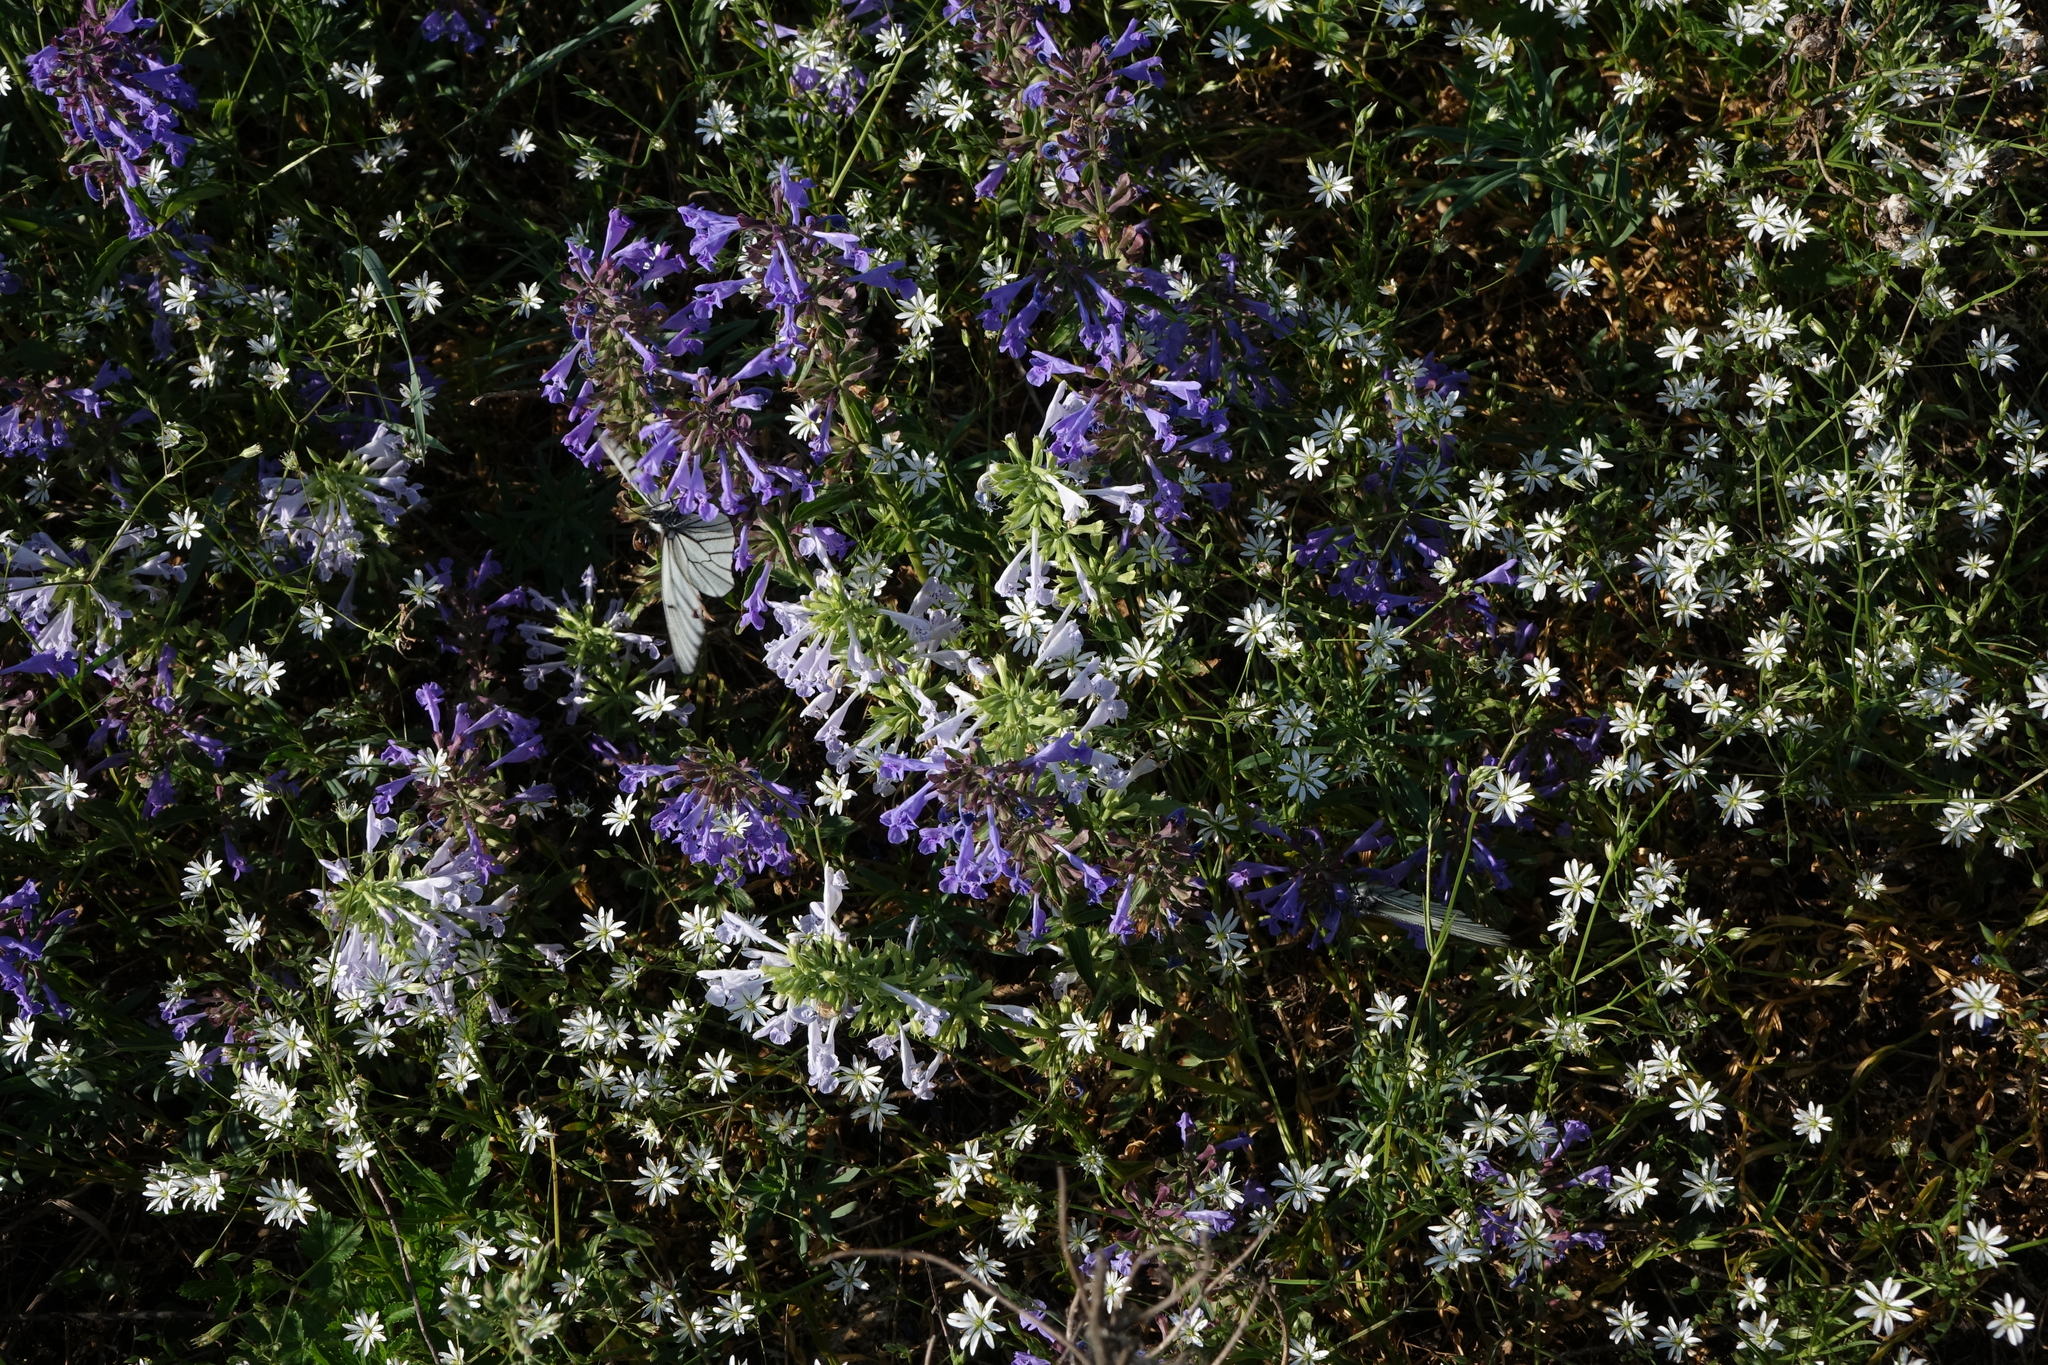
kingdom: Plantae
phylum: Tracheophyta
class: Magnoliopsida
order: Lamiales
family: Lamiaceae
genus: Dracocephalum
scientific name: Dracocephalum nutans
